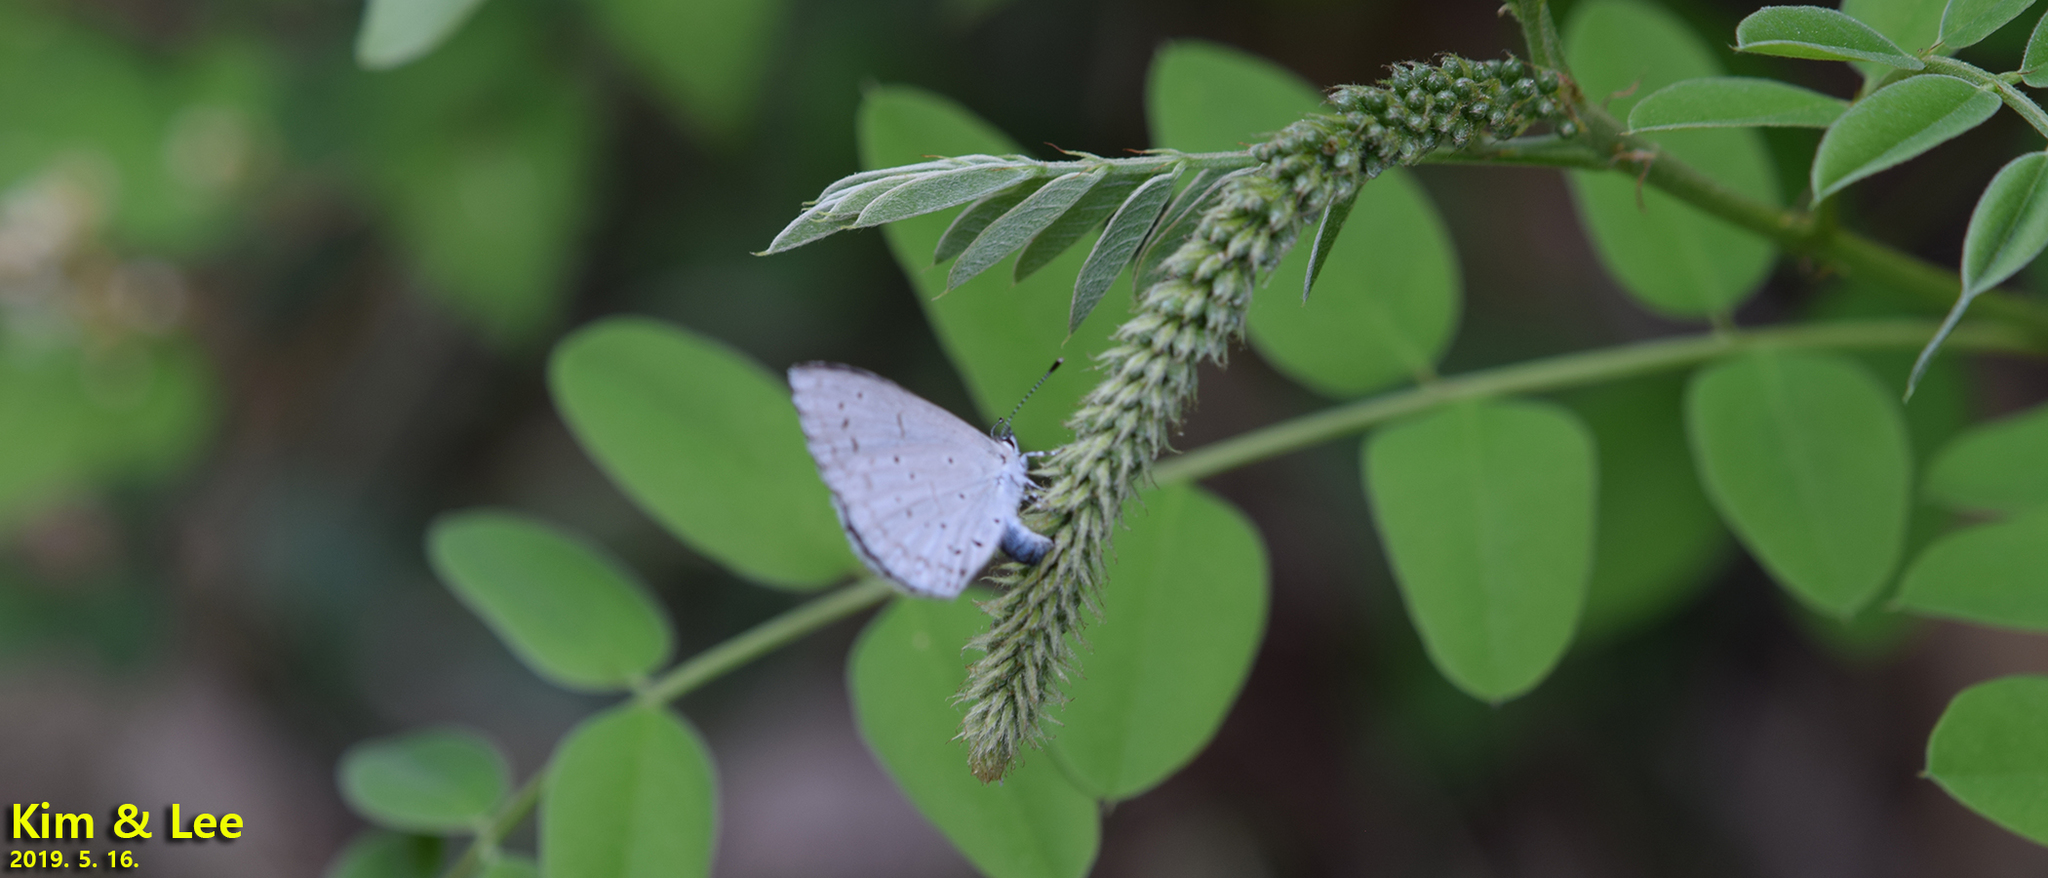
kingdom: Animalia
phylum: Arthropoda
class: Insecta
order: Lepidoptera
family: Lycaenidae
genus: Celastrina
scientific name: Celastrina argiolus
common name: Holly blue
